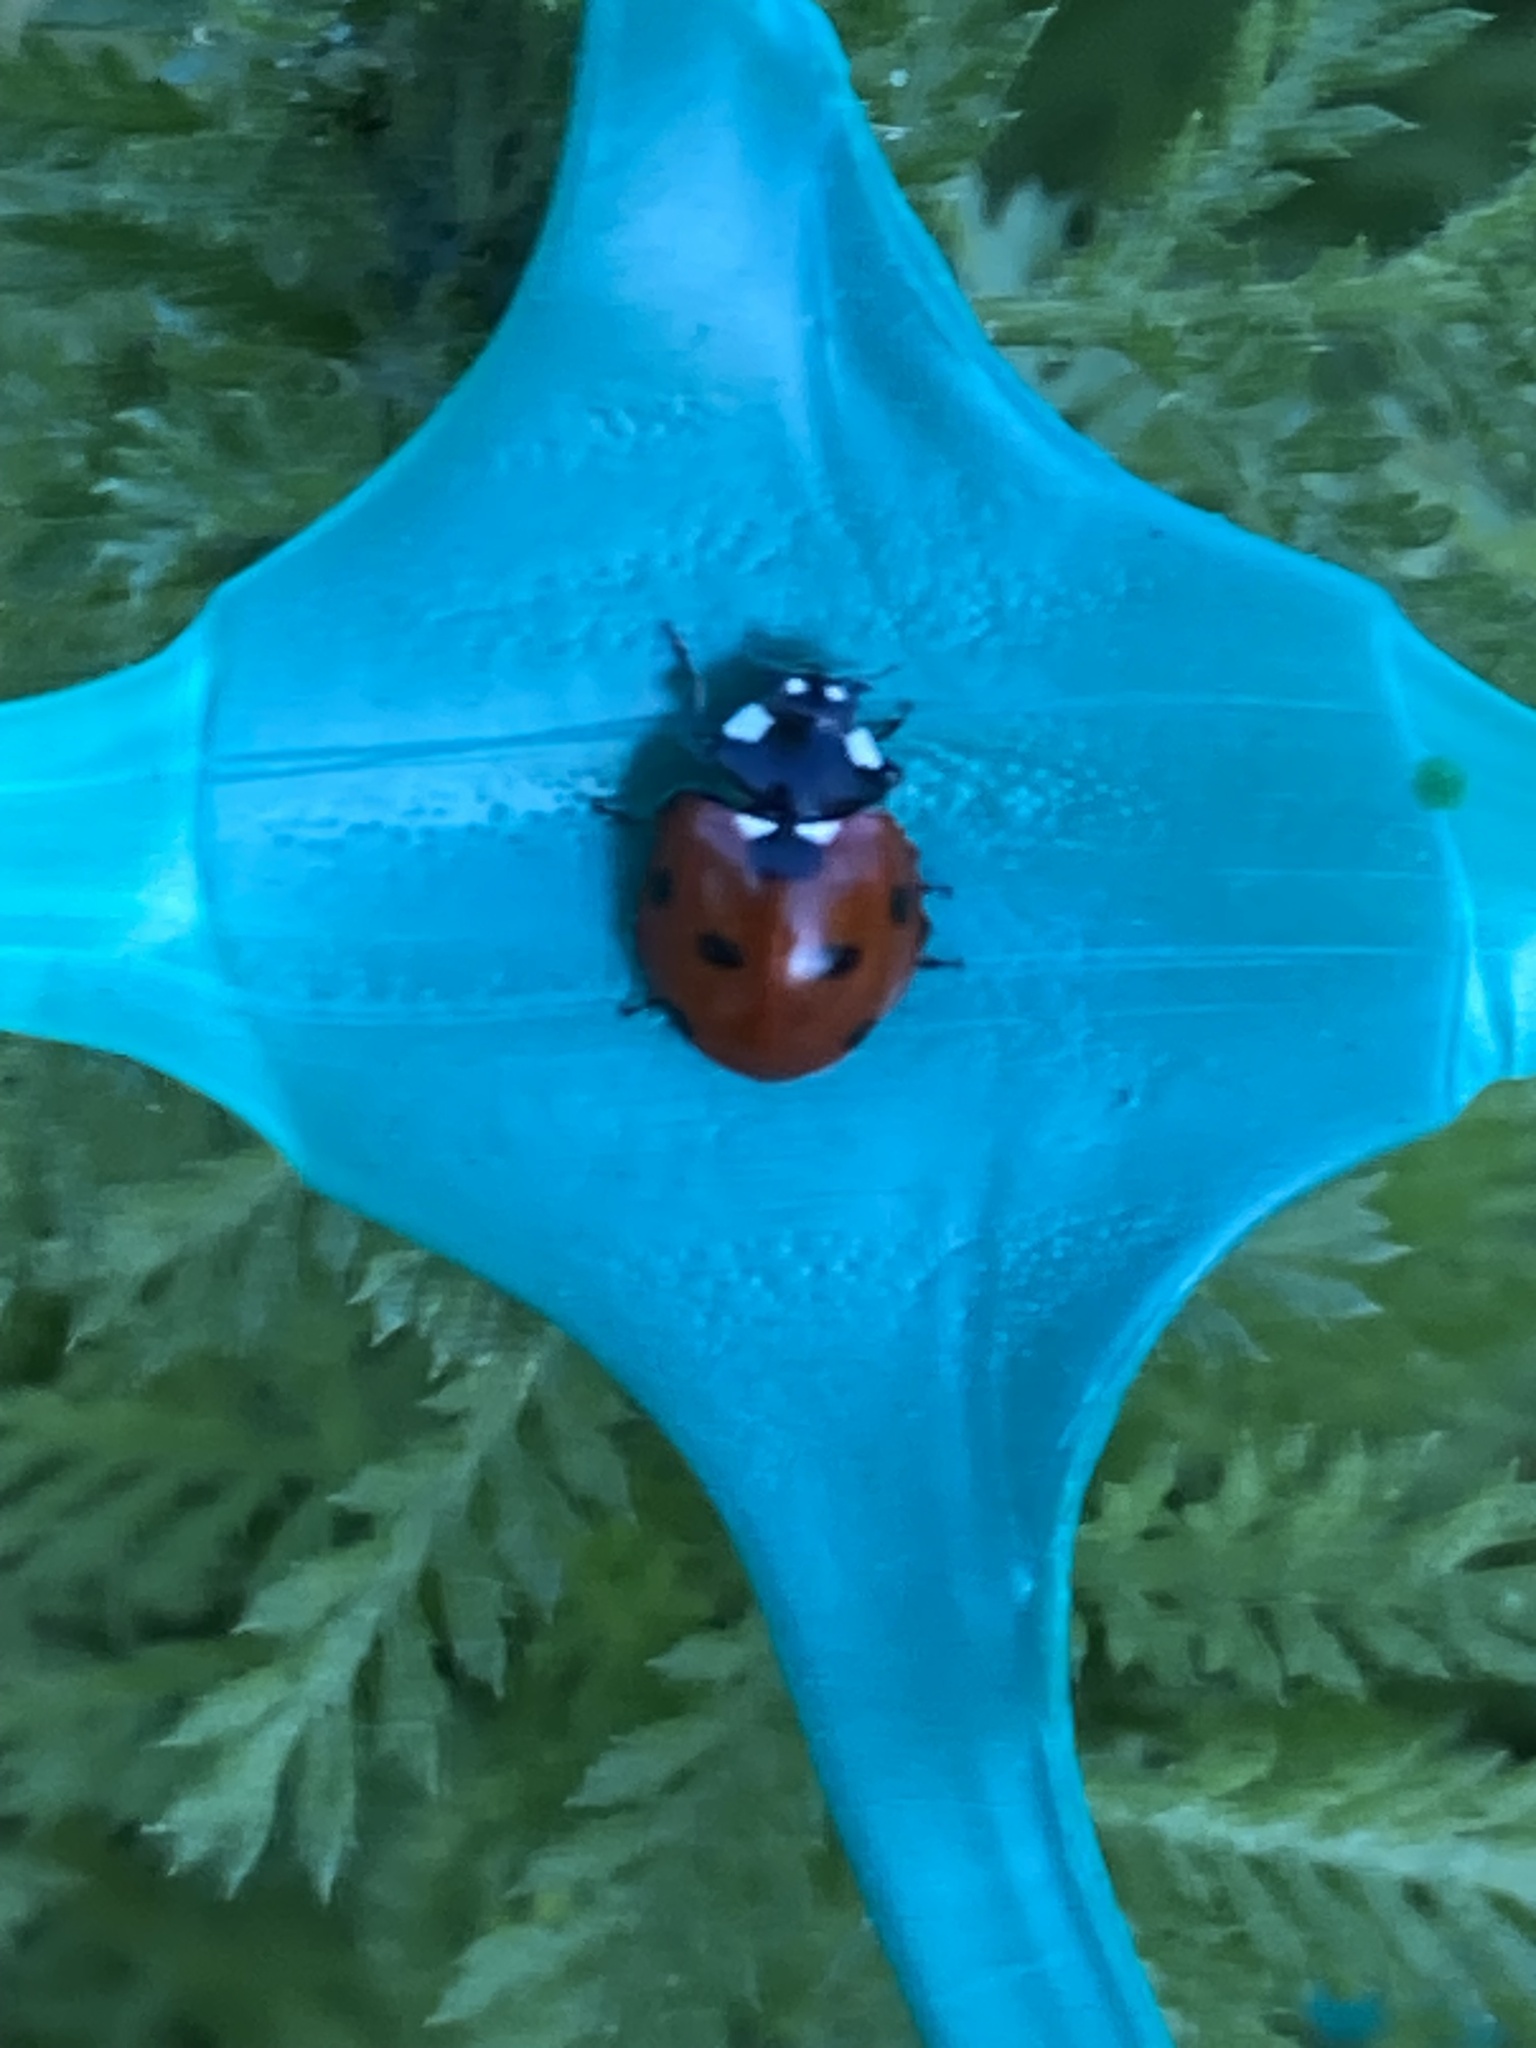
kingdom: Animalia
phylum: Arthropoda
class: Insecta
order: Coleoptera
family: Coccinellidae
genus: Coccinella
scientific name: Coccinella septempunctata
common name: Sevenspotted lady beetle
